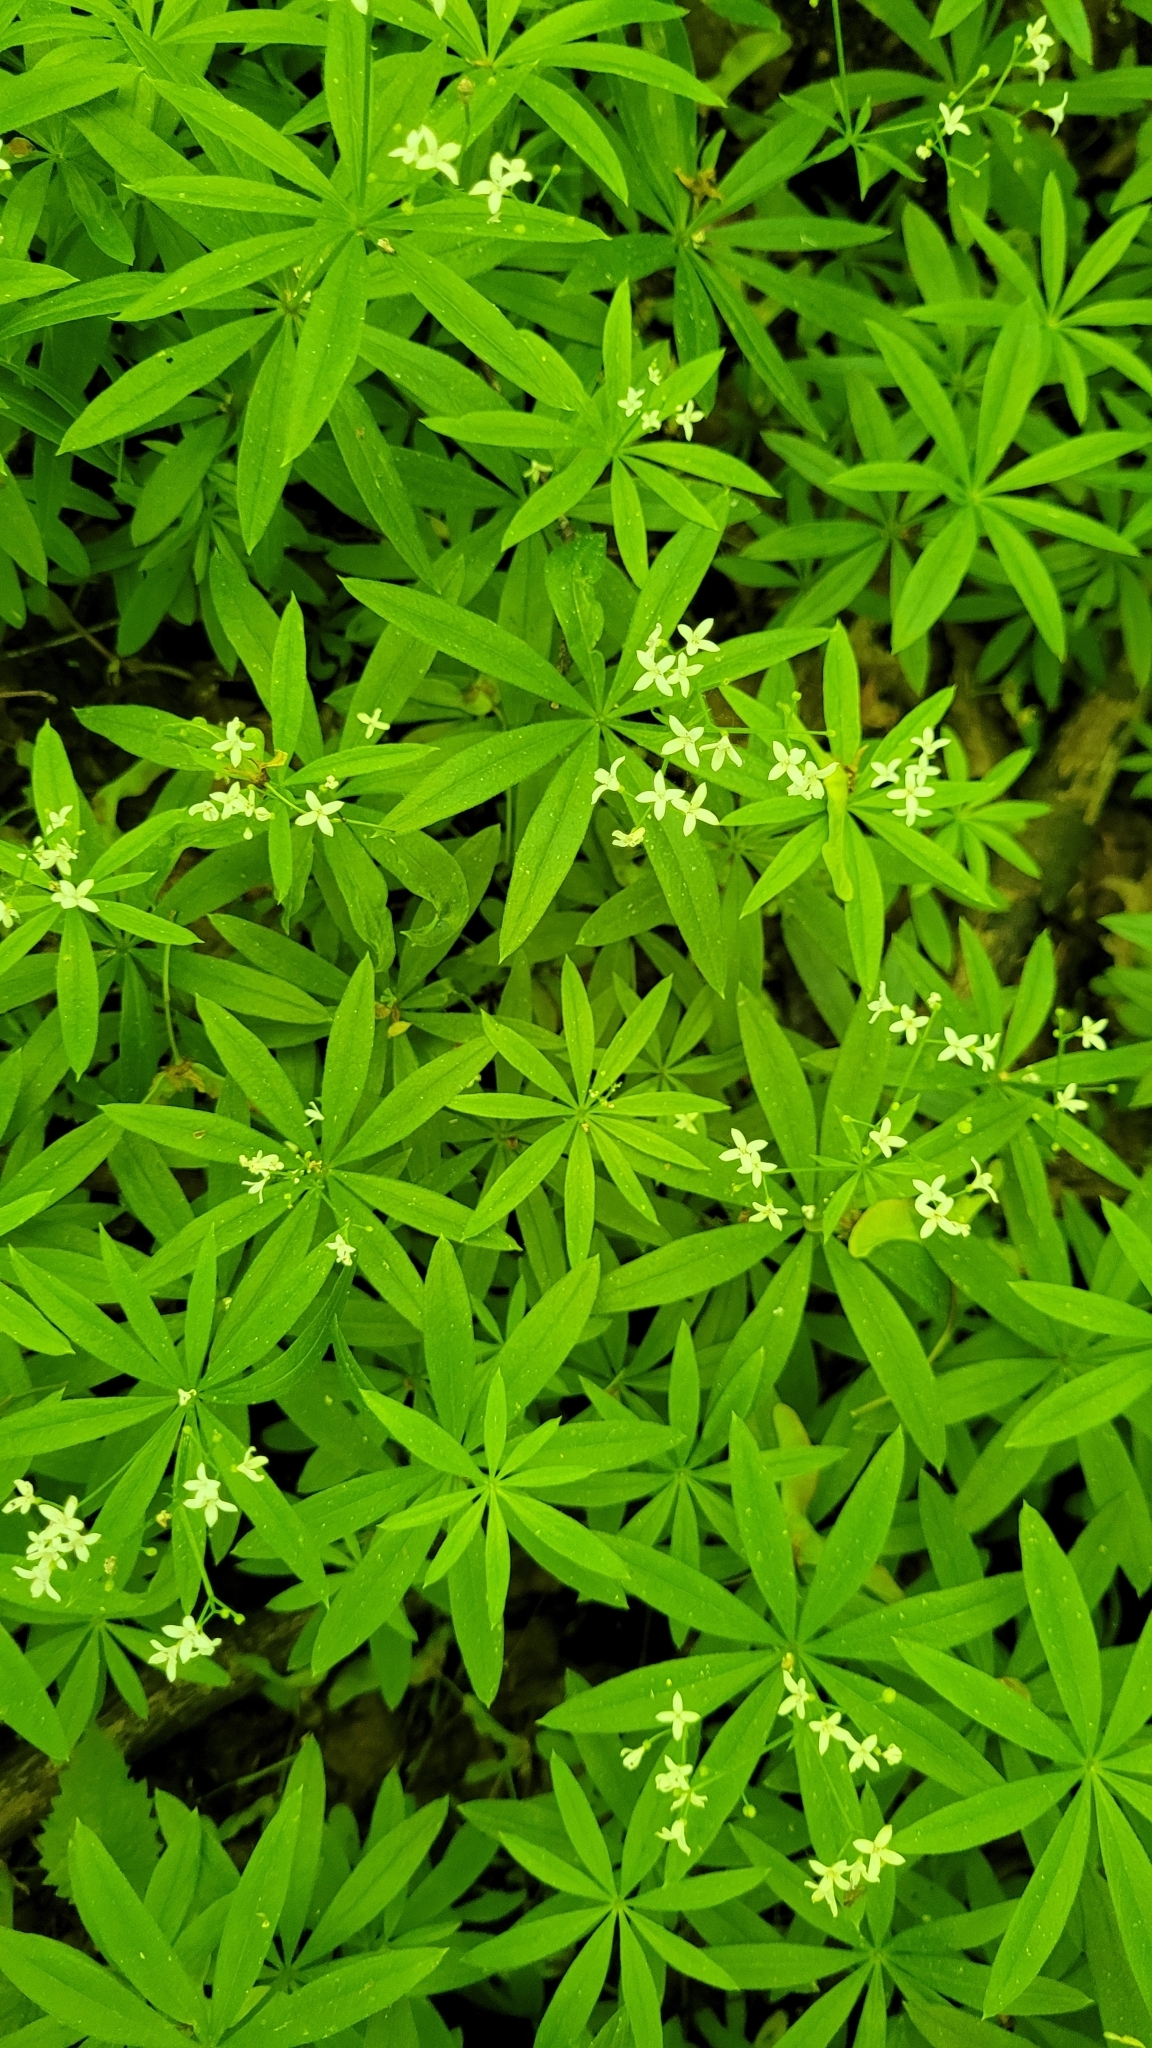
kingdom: Plantae
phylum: Tracheophyta
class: Magnoliopsida
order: Gentianales
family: Rubiaceae
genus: Galium
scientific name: Galium odoratum
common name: Sweet woodruff
